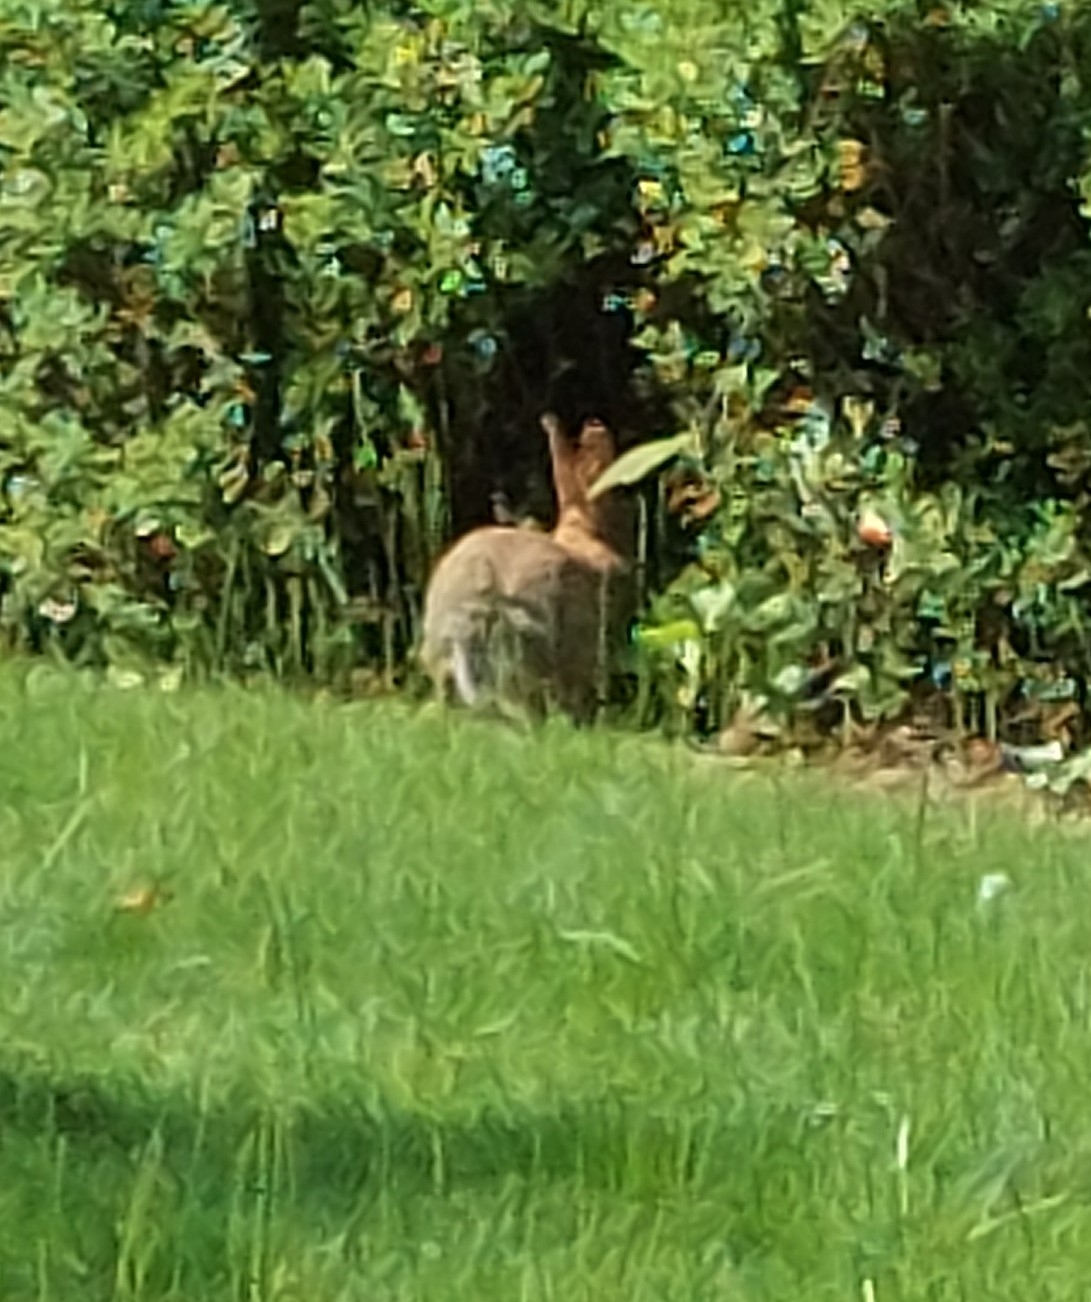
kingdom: Animalia
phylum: Chordata
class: Mammalia
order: Lagomorpha
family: Leporidae
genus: Oryctolagus
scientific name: Oryctolagus cuniculus
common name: European rabbit
